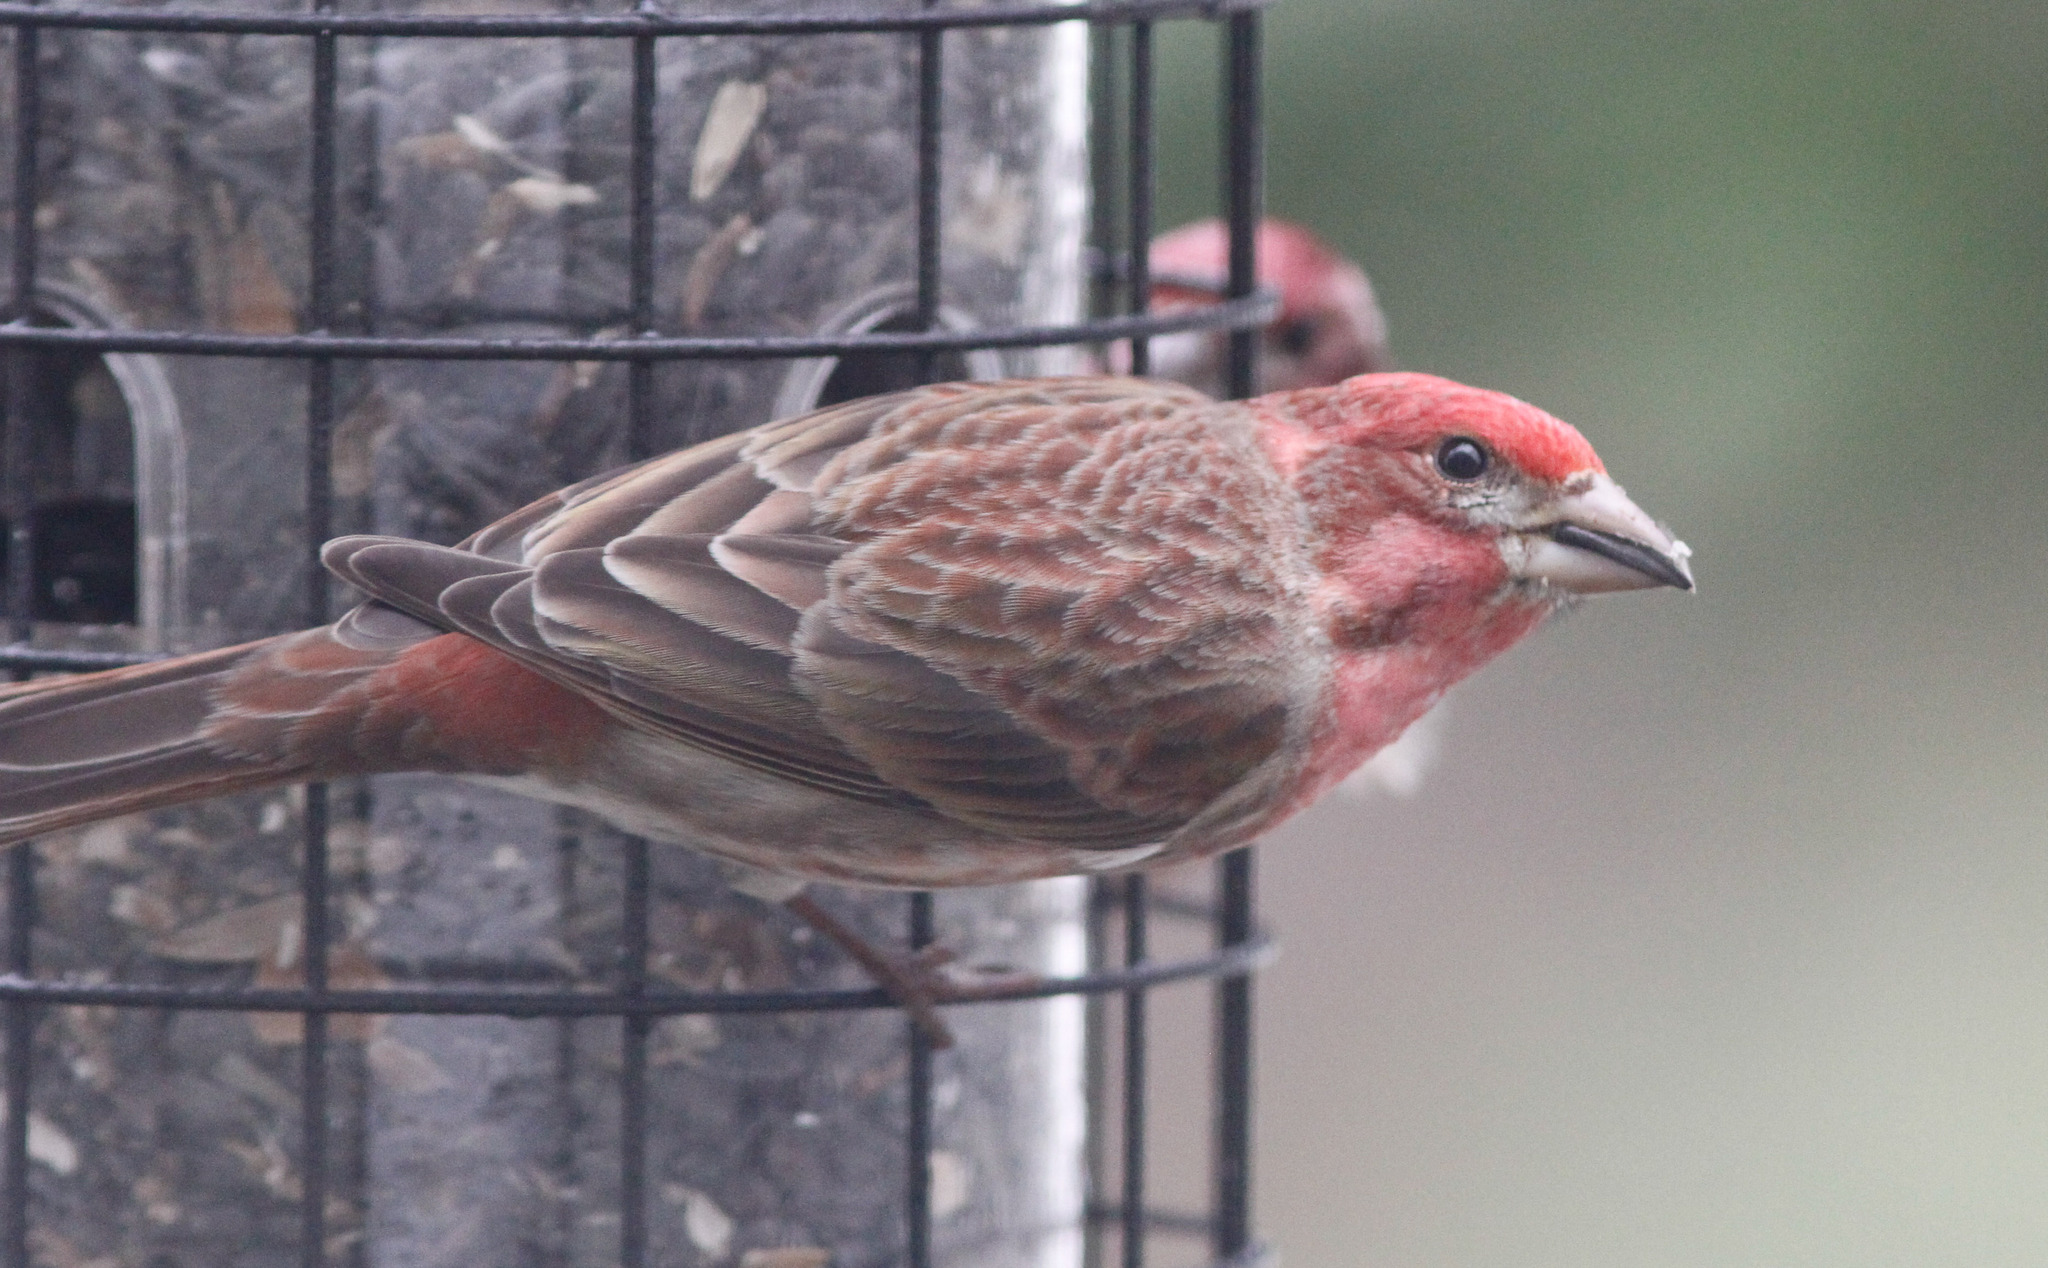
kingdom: Animalia
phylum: Chordata
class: Aves
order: Passeriformes
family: Fringillidae
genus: Haemorhous
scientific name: Haemorhous purpureus
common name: Purple finch
